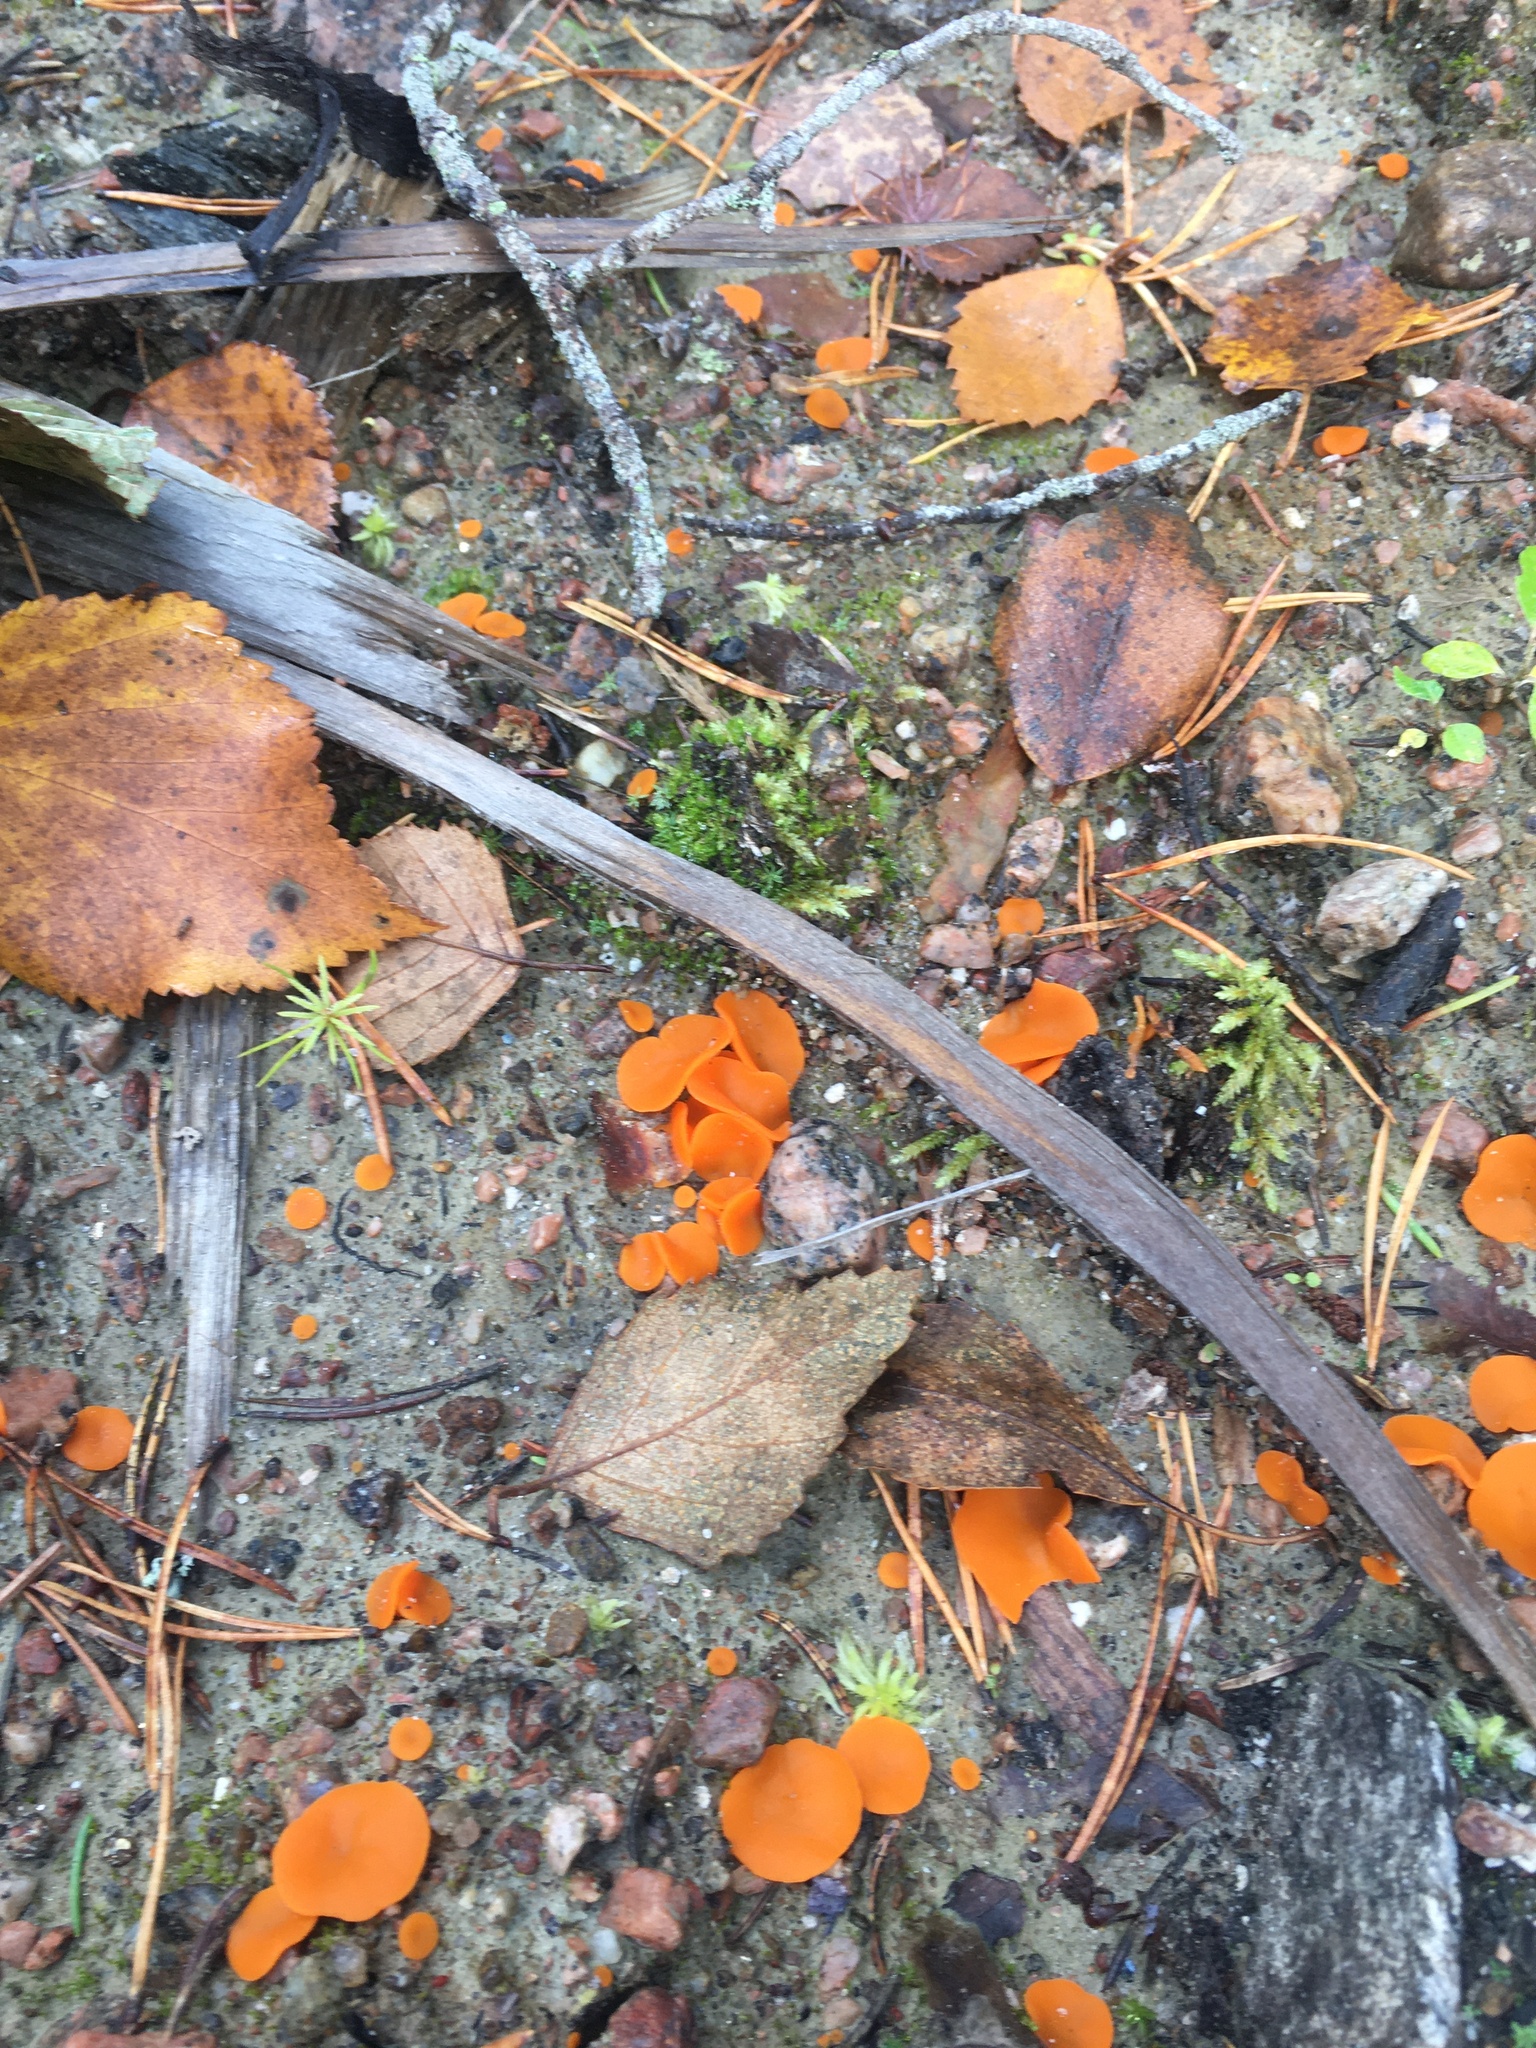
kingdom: Fungi
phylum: Ascomycota
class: Pezizomycetes
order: Pezizales
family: Pyronemataceae
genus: Aleuria
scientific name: Aleuria aurantia
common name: Orange peel fungus
